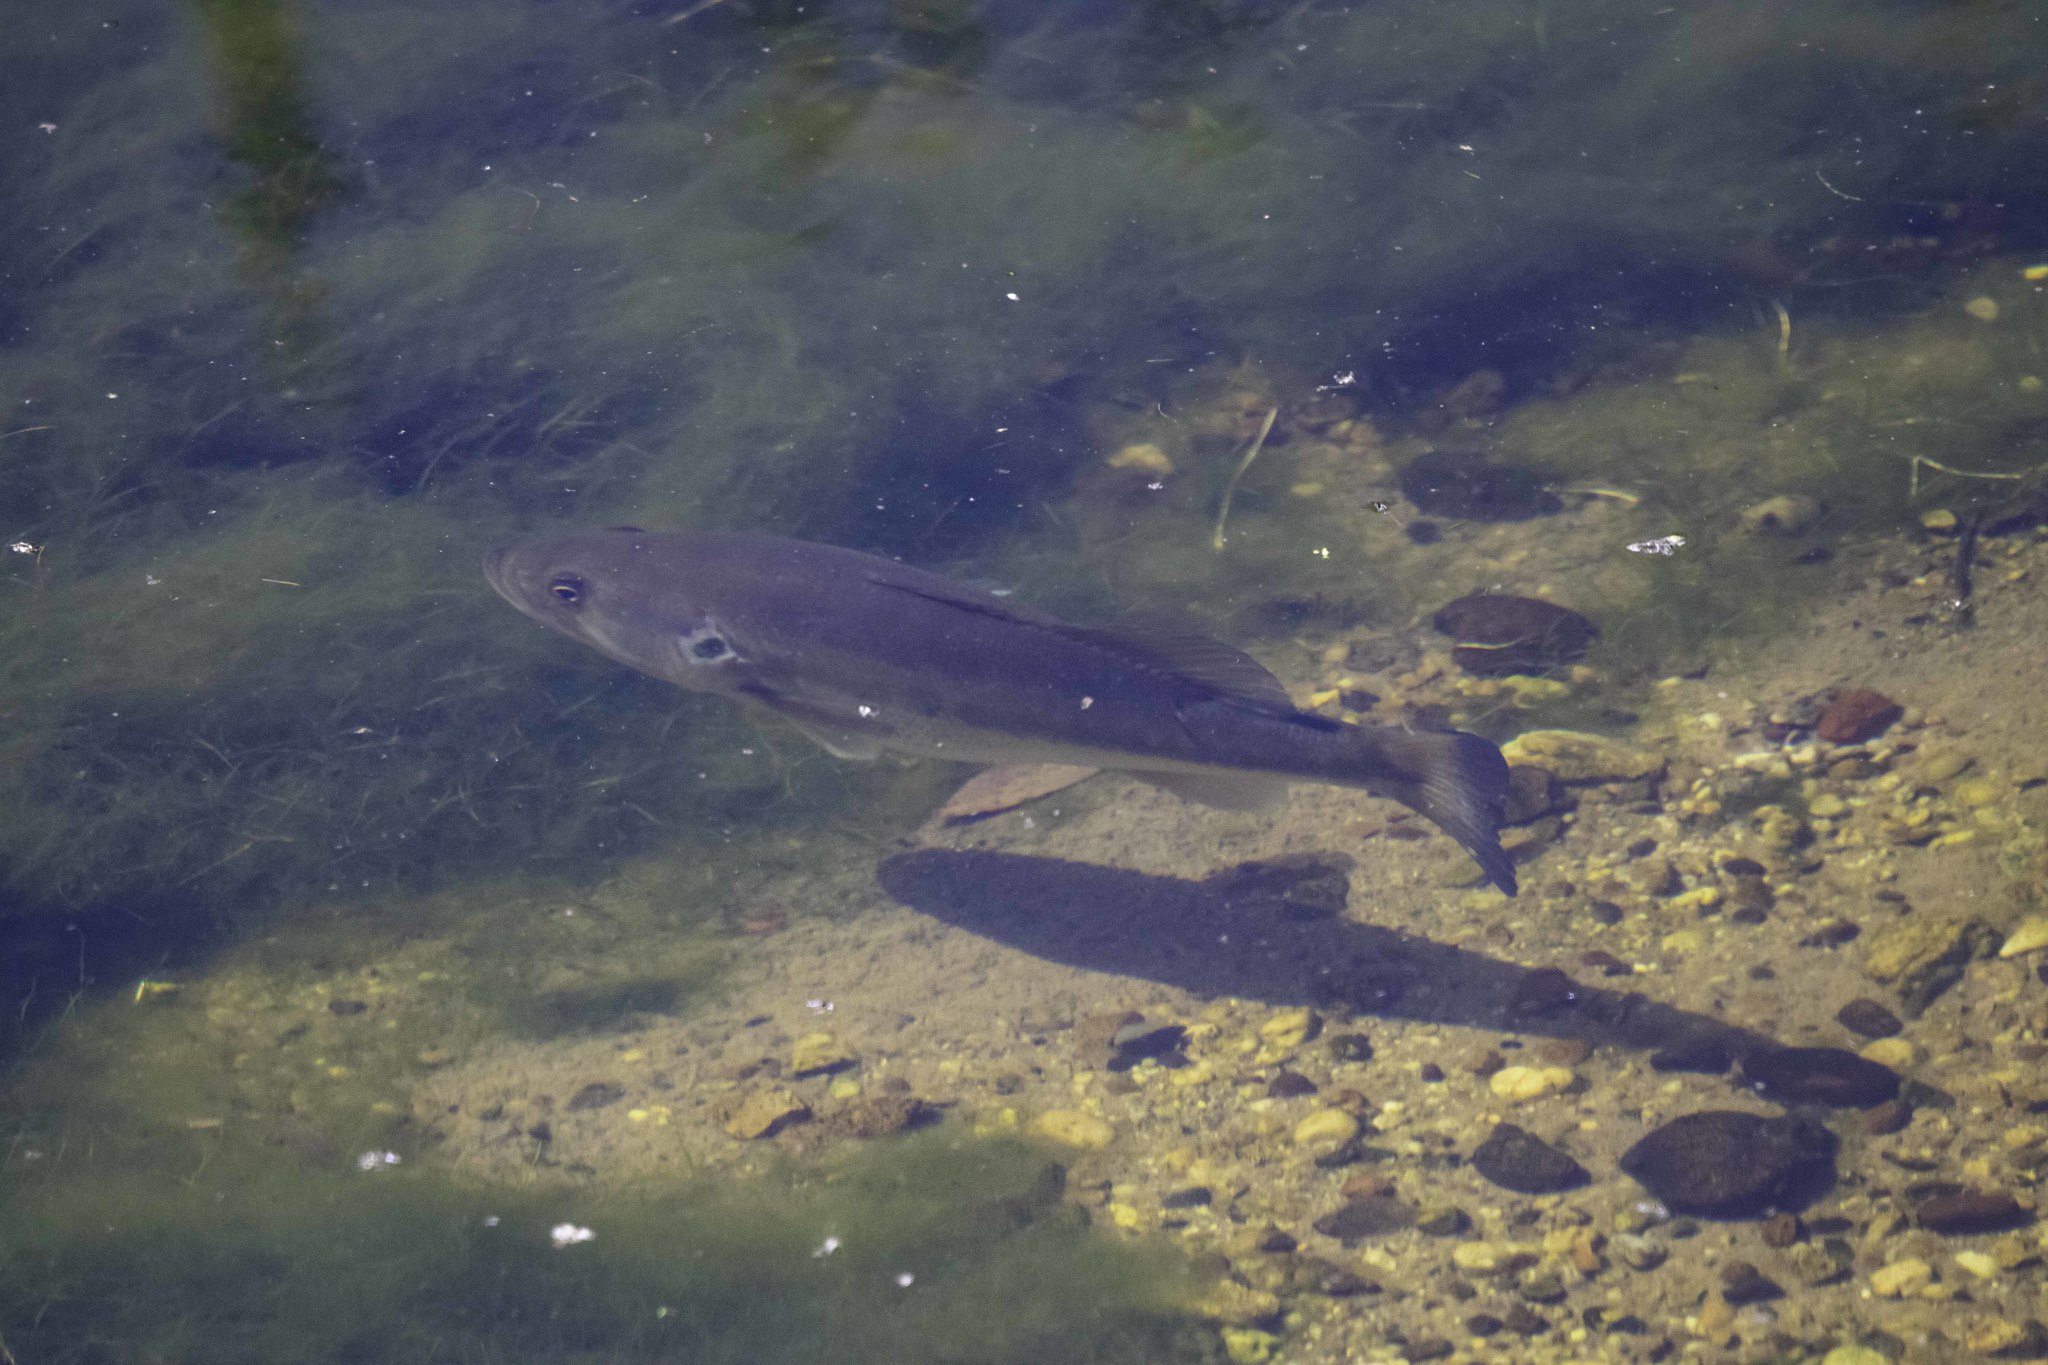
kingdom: Animalia
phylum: Chordata
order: Perciformes
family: Centrarchidae
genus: Micropterus
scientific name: Micropterus
